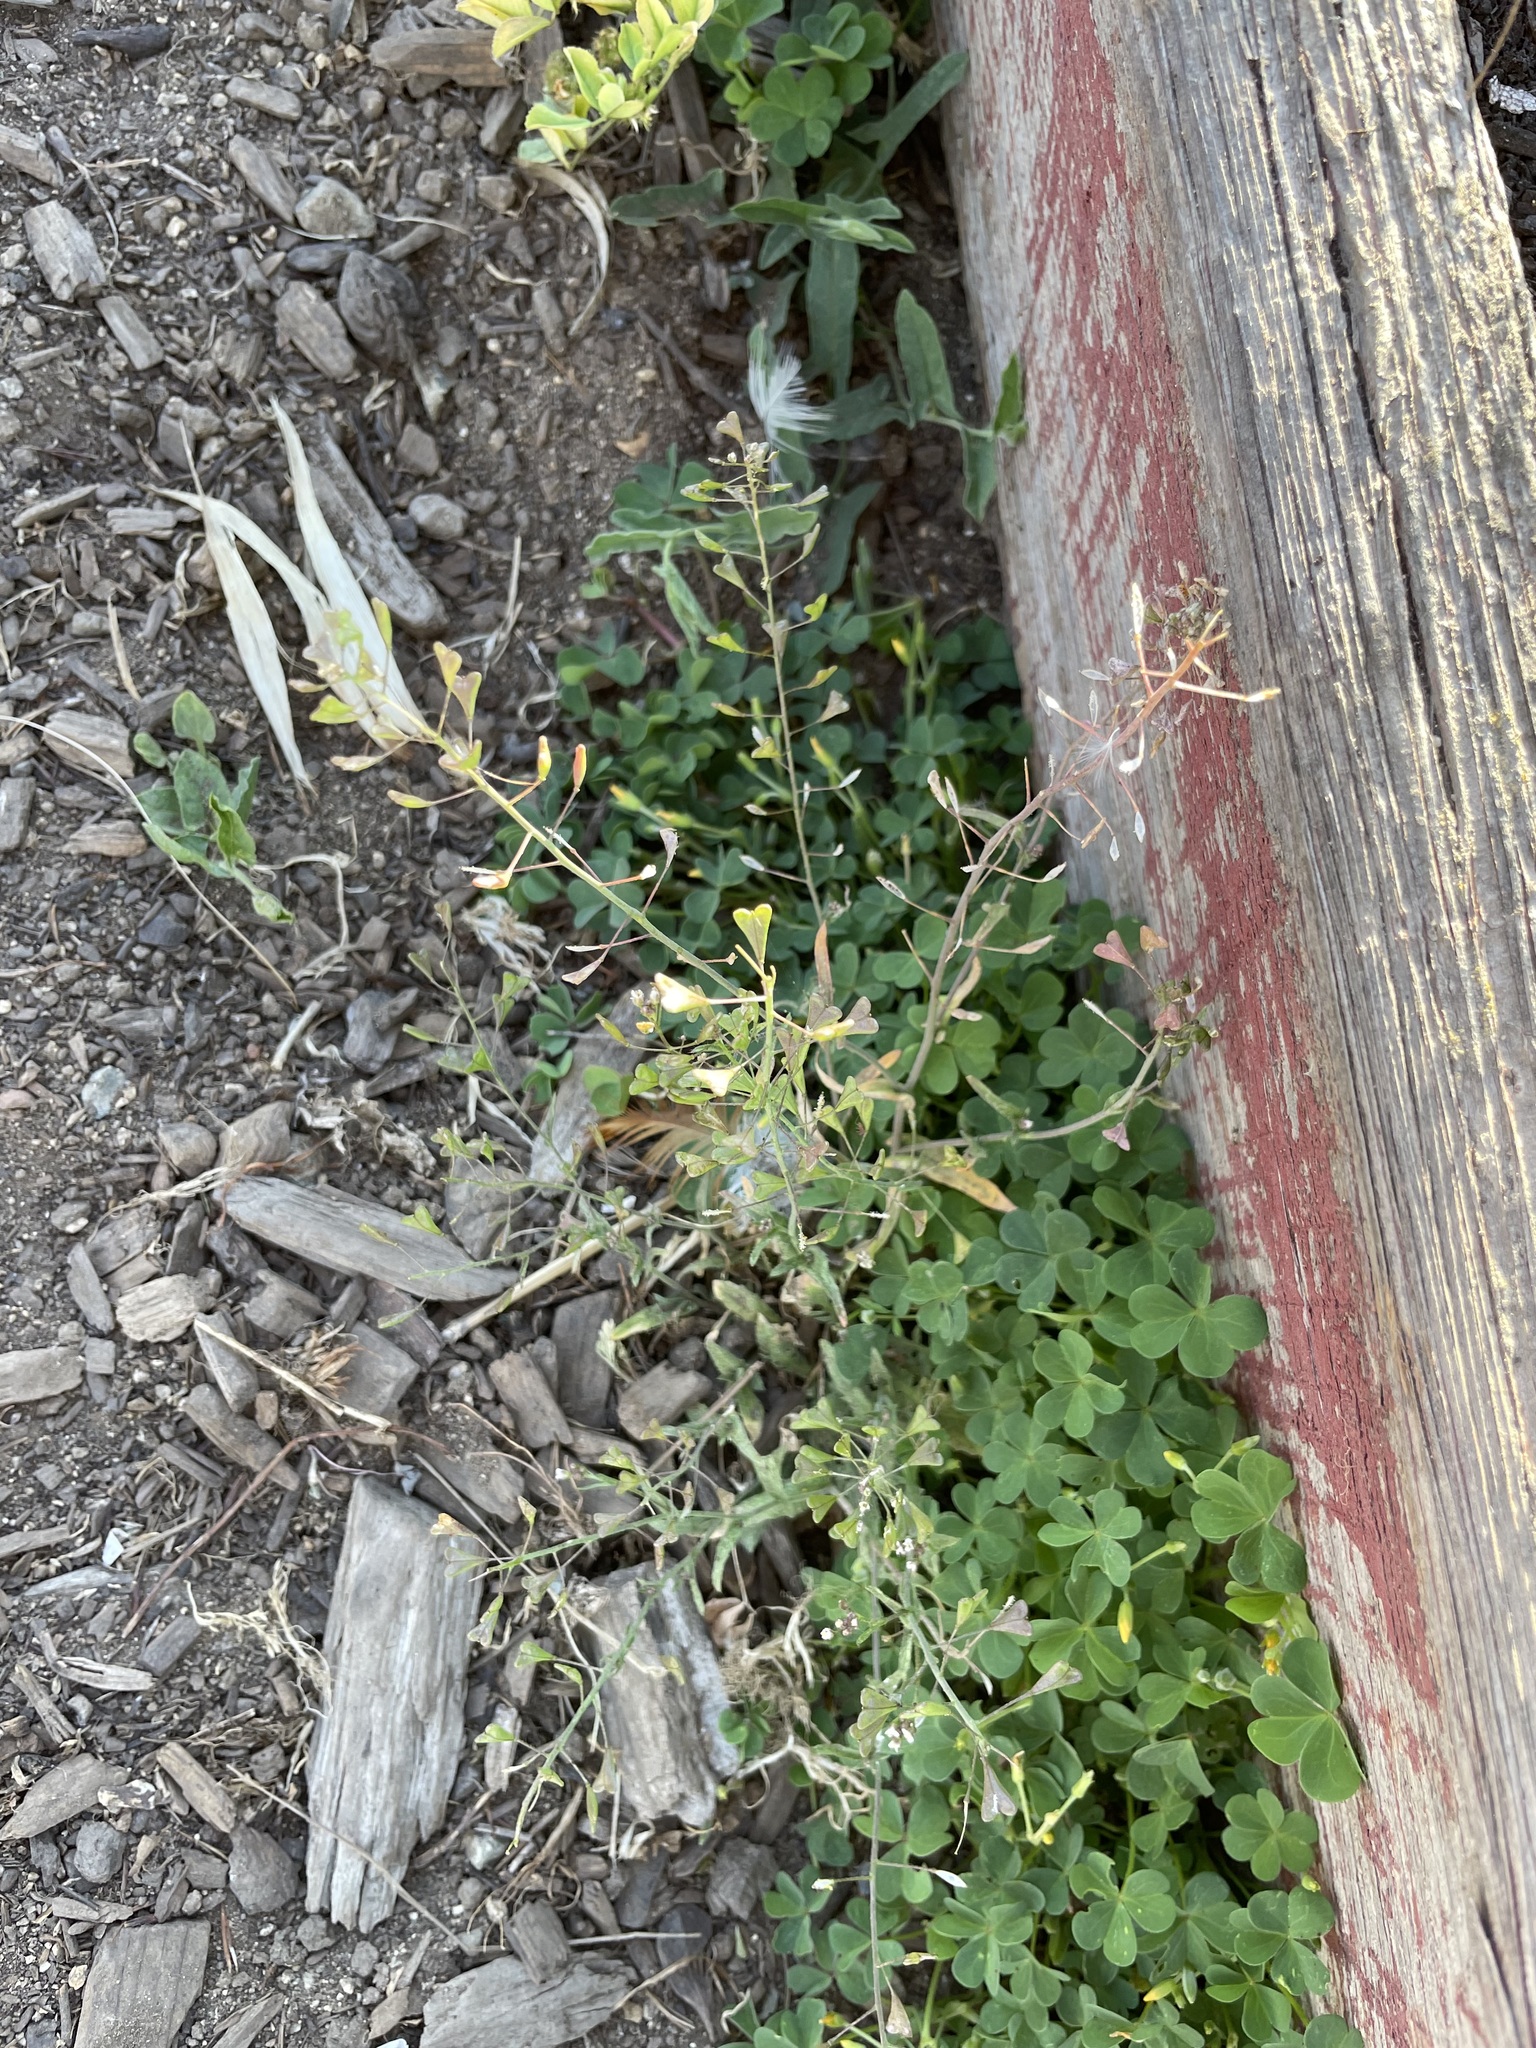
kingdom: Plantae
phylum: Tracheophyta
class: Magnoliopsida
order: Brassicales
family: Brassicaceae
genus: Capsella
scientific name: Capsella bursa-pastoris
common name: Shepherd's purse
